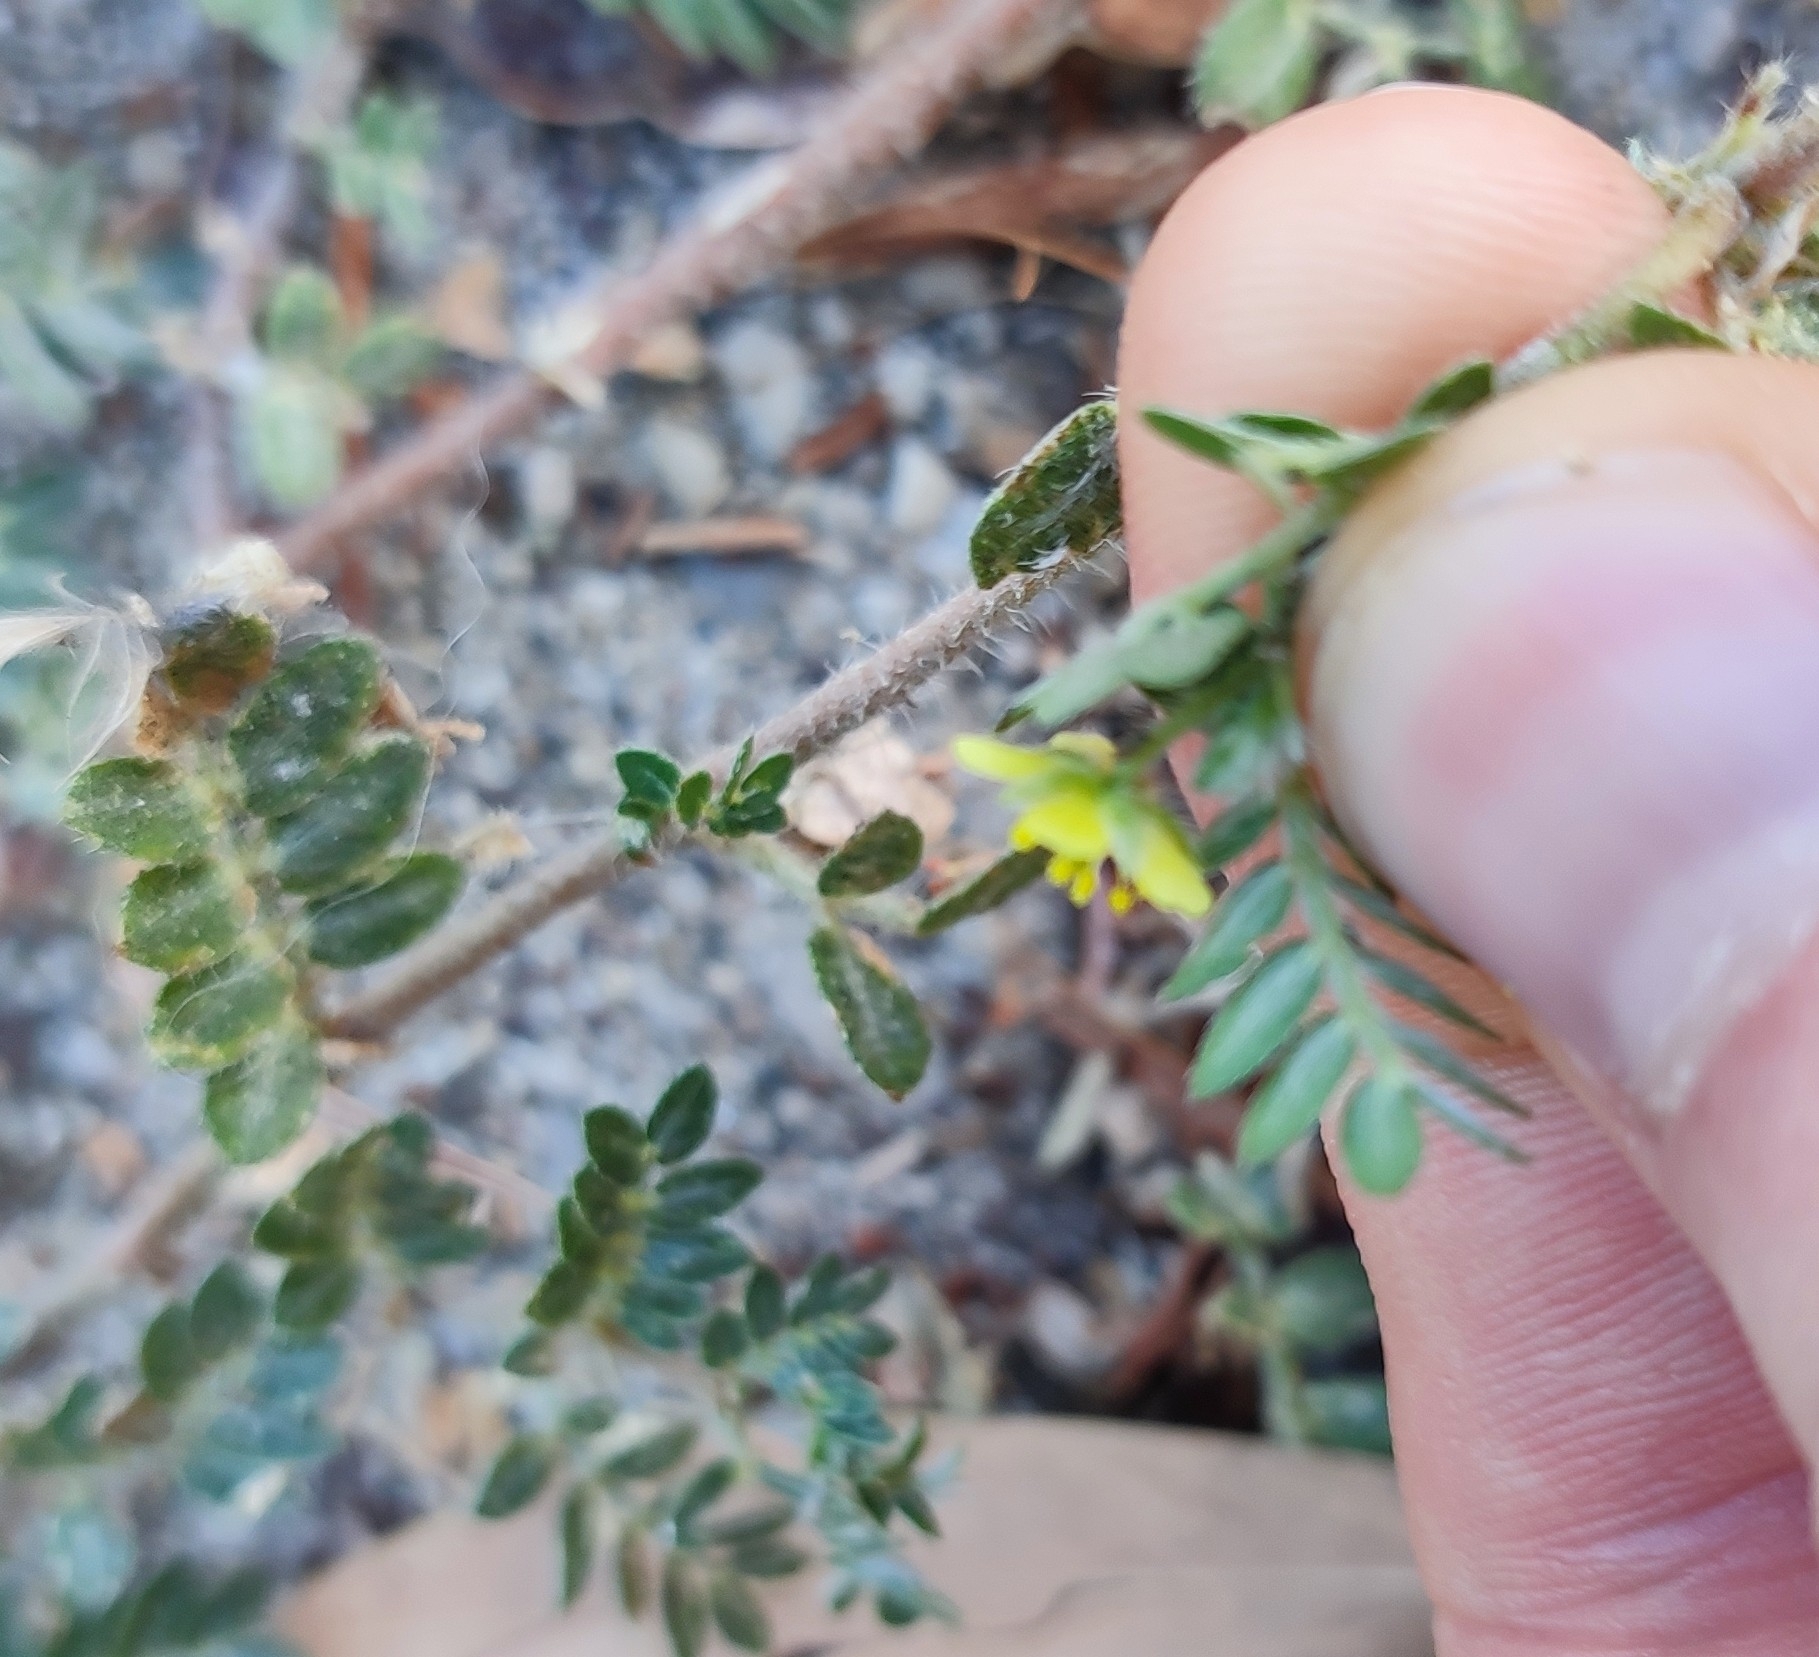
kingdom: Plantae
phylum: Tracheophyta
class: Magnoliopsida
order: Zygophyllales
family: Zygophyllaceae
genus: Tribulus
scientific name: Tribulus terrestris
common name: Puncturevine
